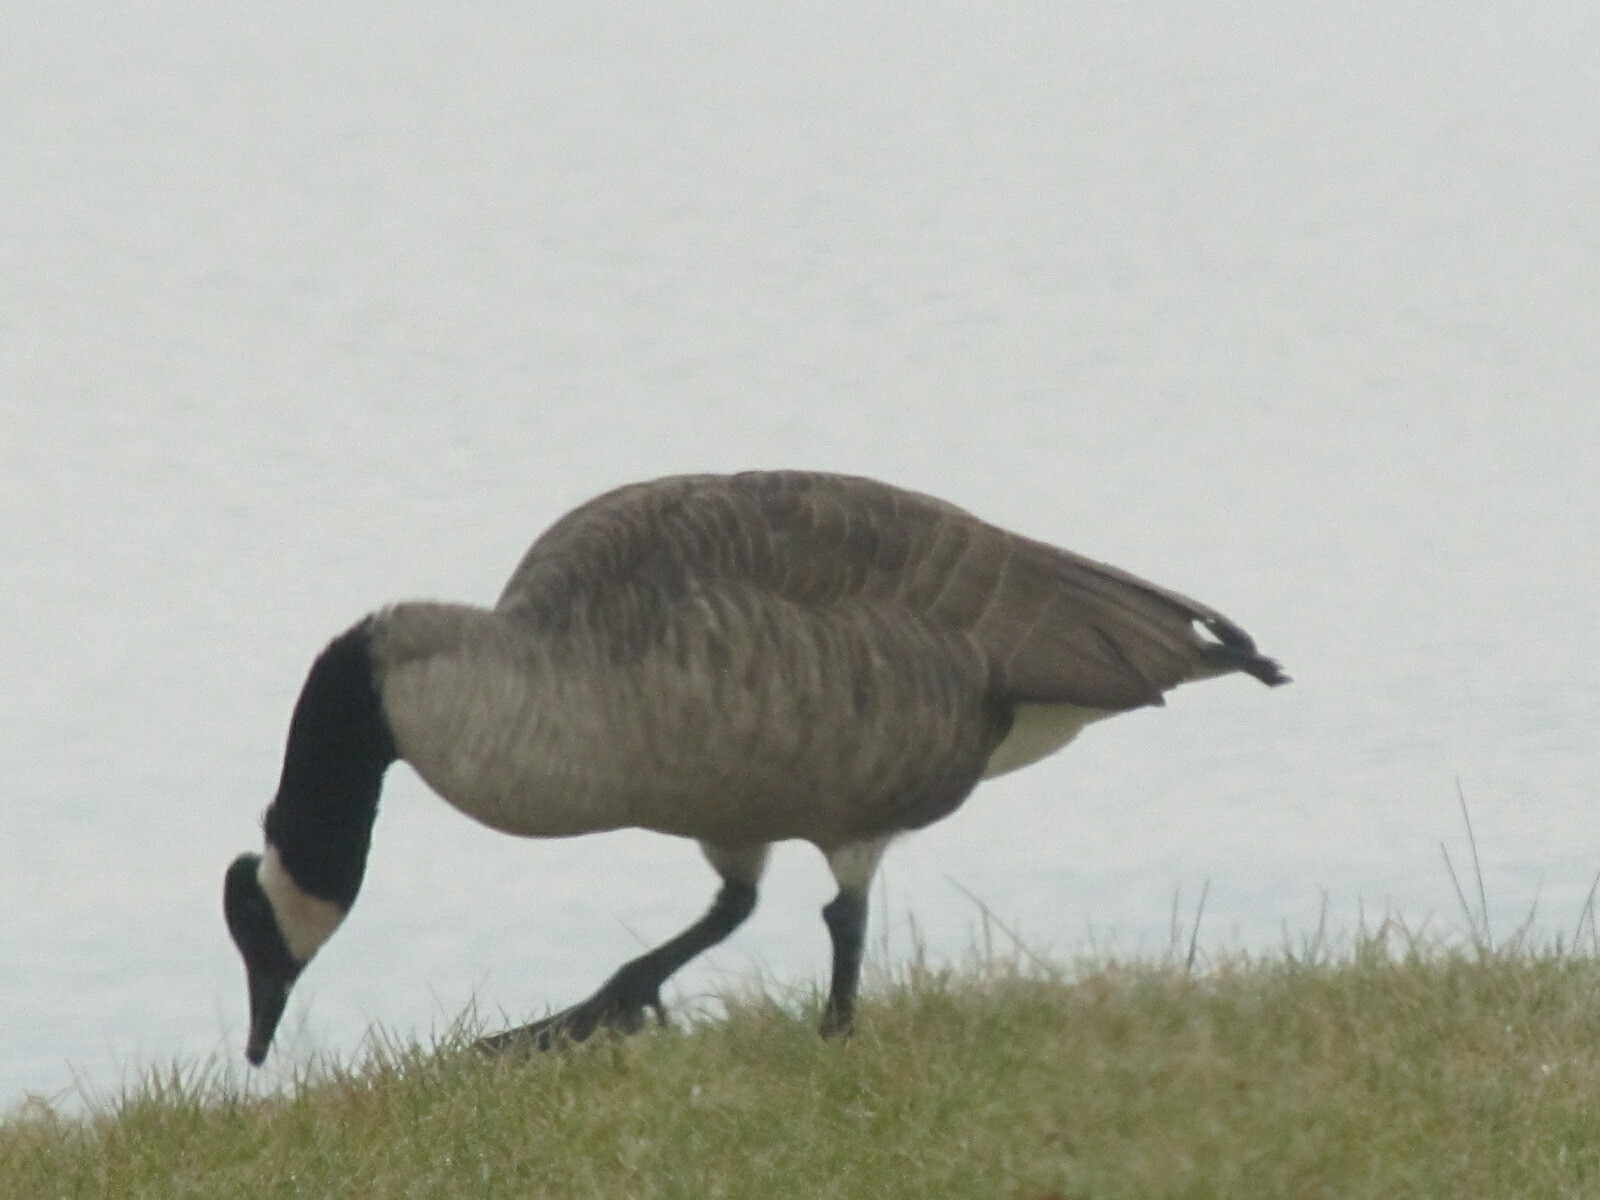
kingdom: Animalia
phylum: Chordata
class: Aves
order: Anseriformes
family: Anatidae
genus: Branta
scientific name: Branta canadensis
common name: Canada goose
